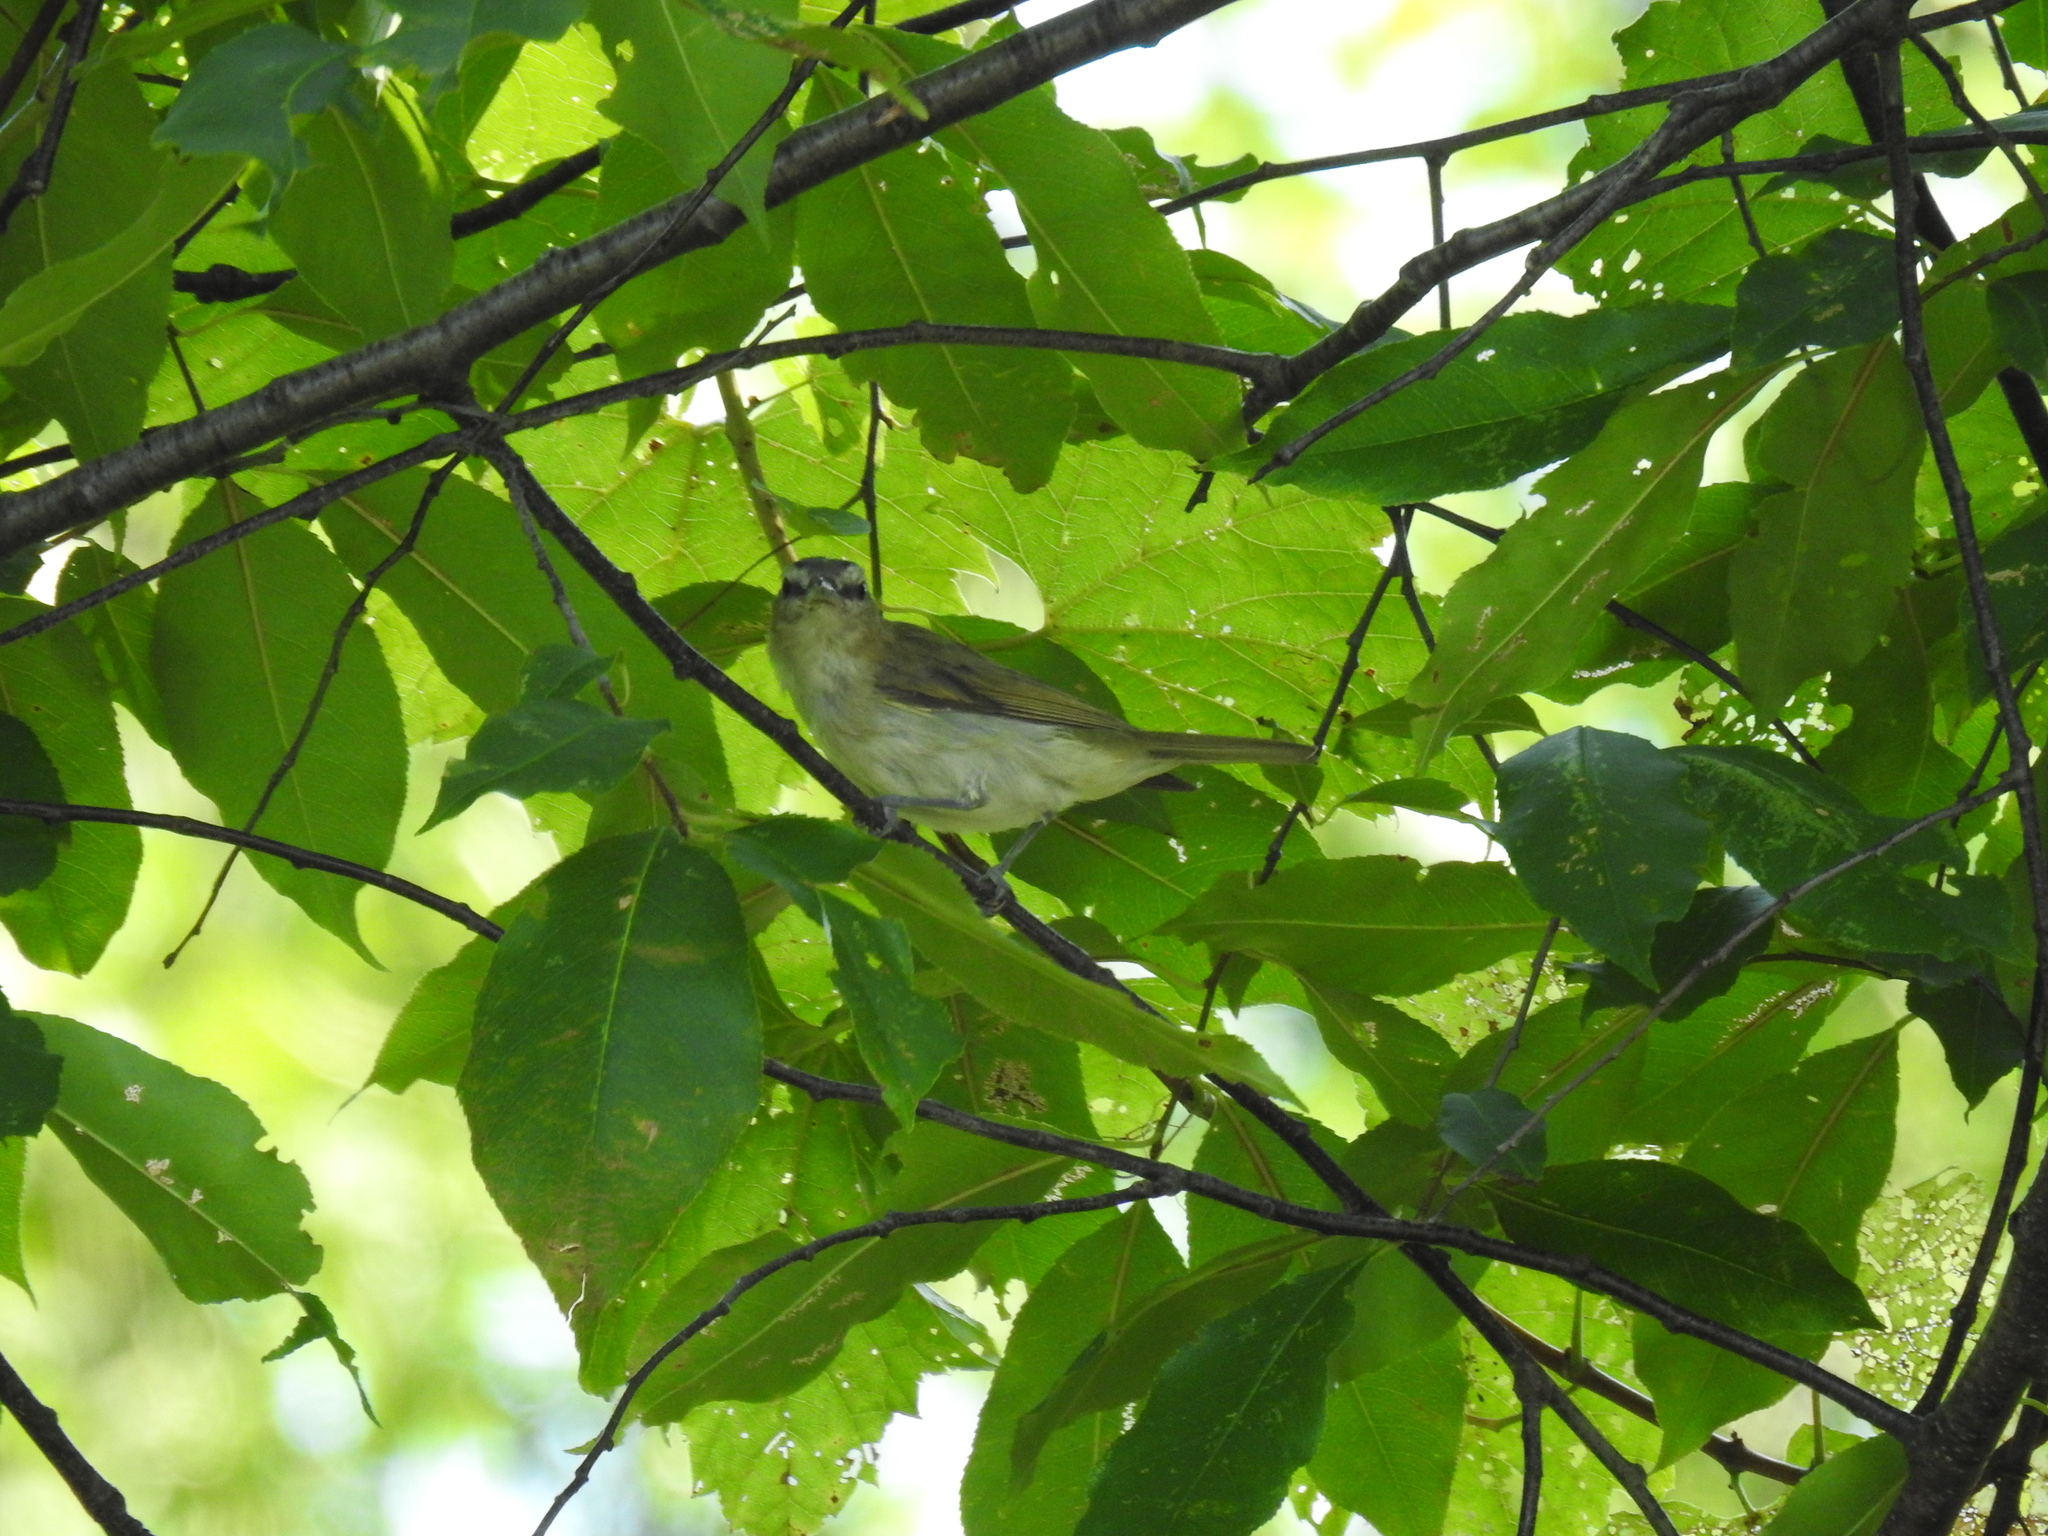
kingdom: Animalia
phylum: Chordata
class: Aves
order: Passeriformes
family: Vireonidae
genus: Vireo
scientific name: Vireo olivaceus
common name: Red-eyed vireo
